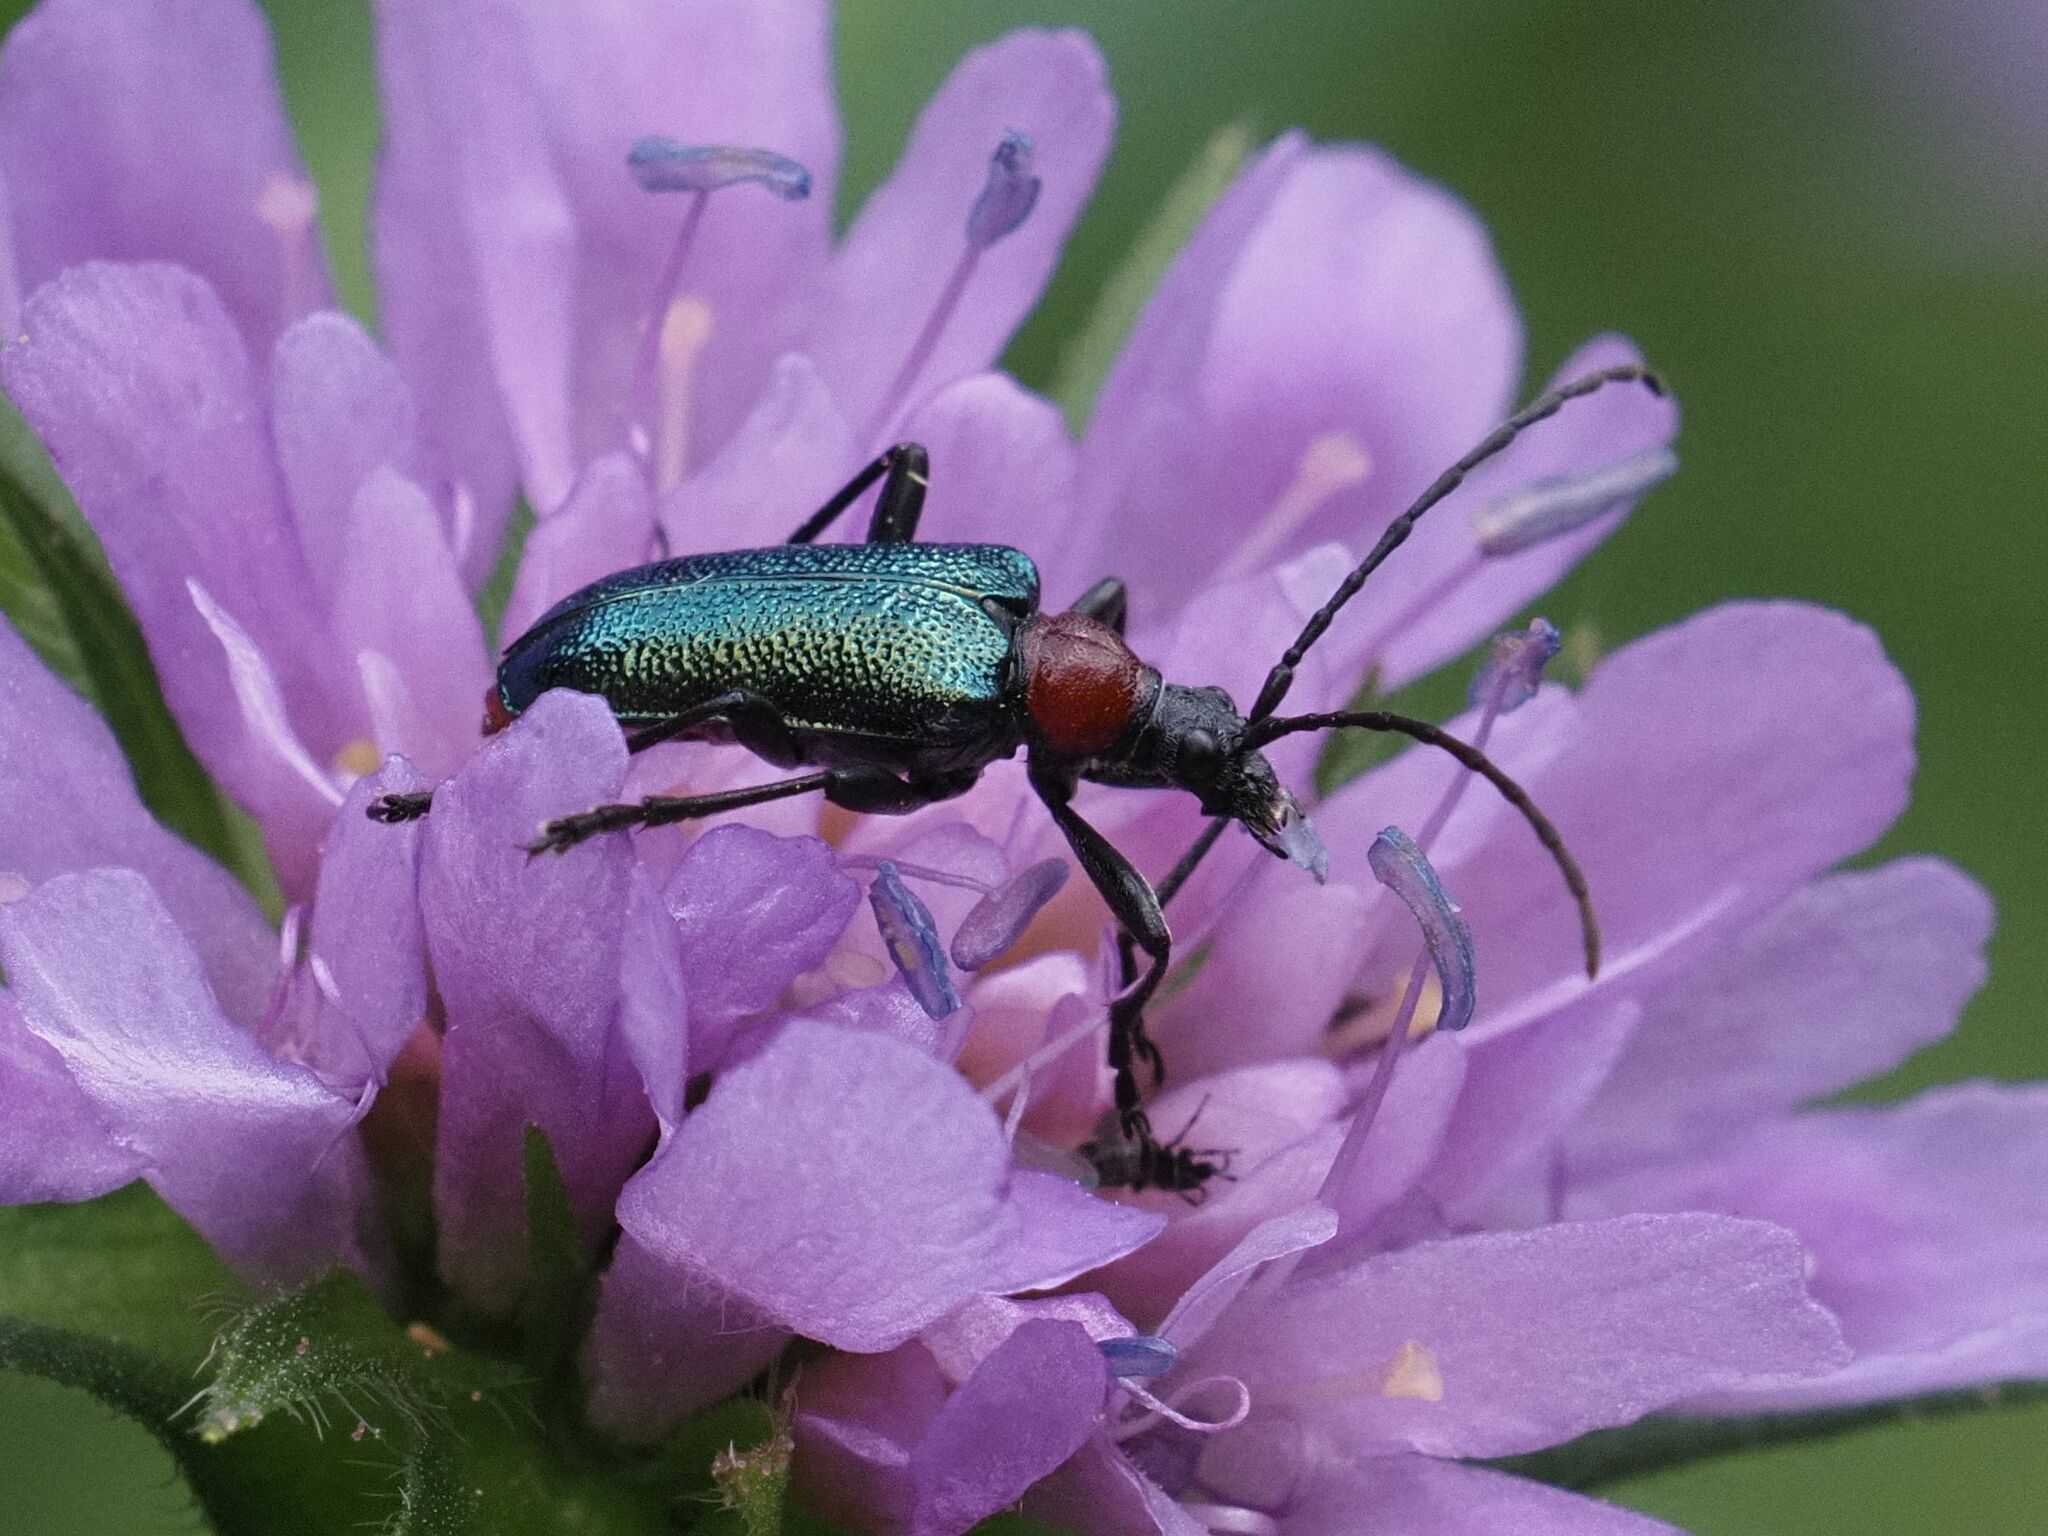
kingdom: Animalia
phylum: Arthropoda
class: Insecta
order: Coleoptera
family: Cerambycidae
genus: Gaurotes
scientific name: Gaurotes virginea
